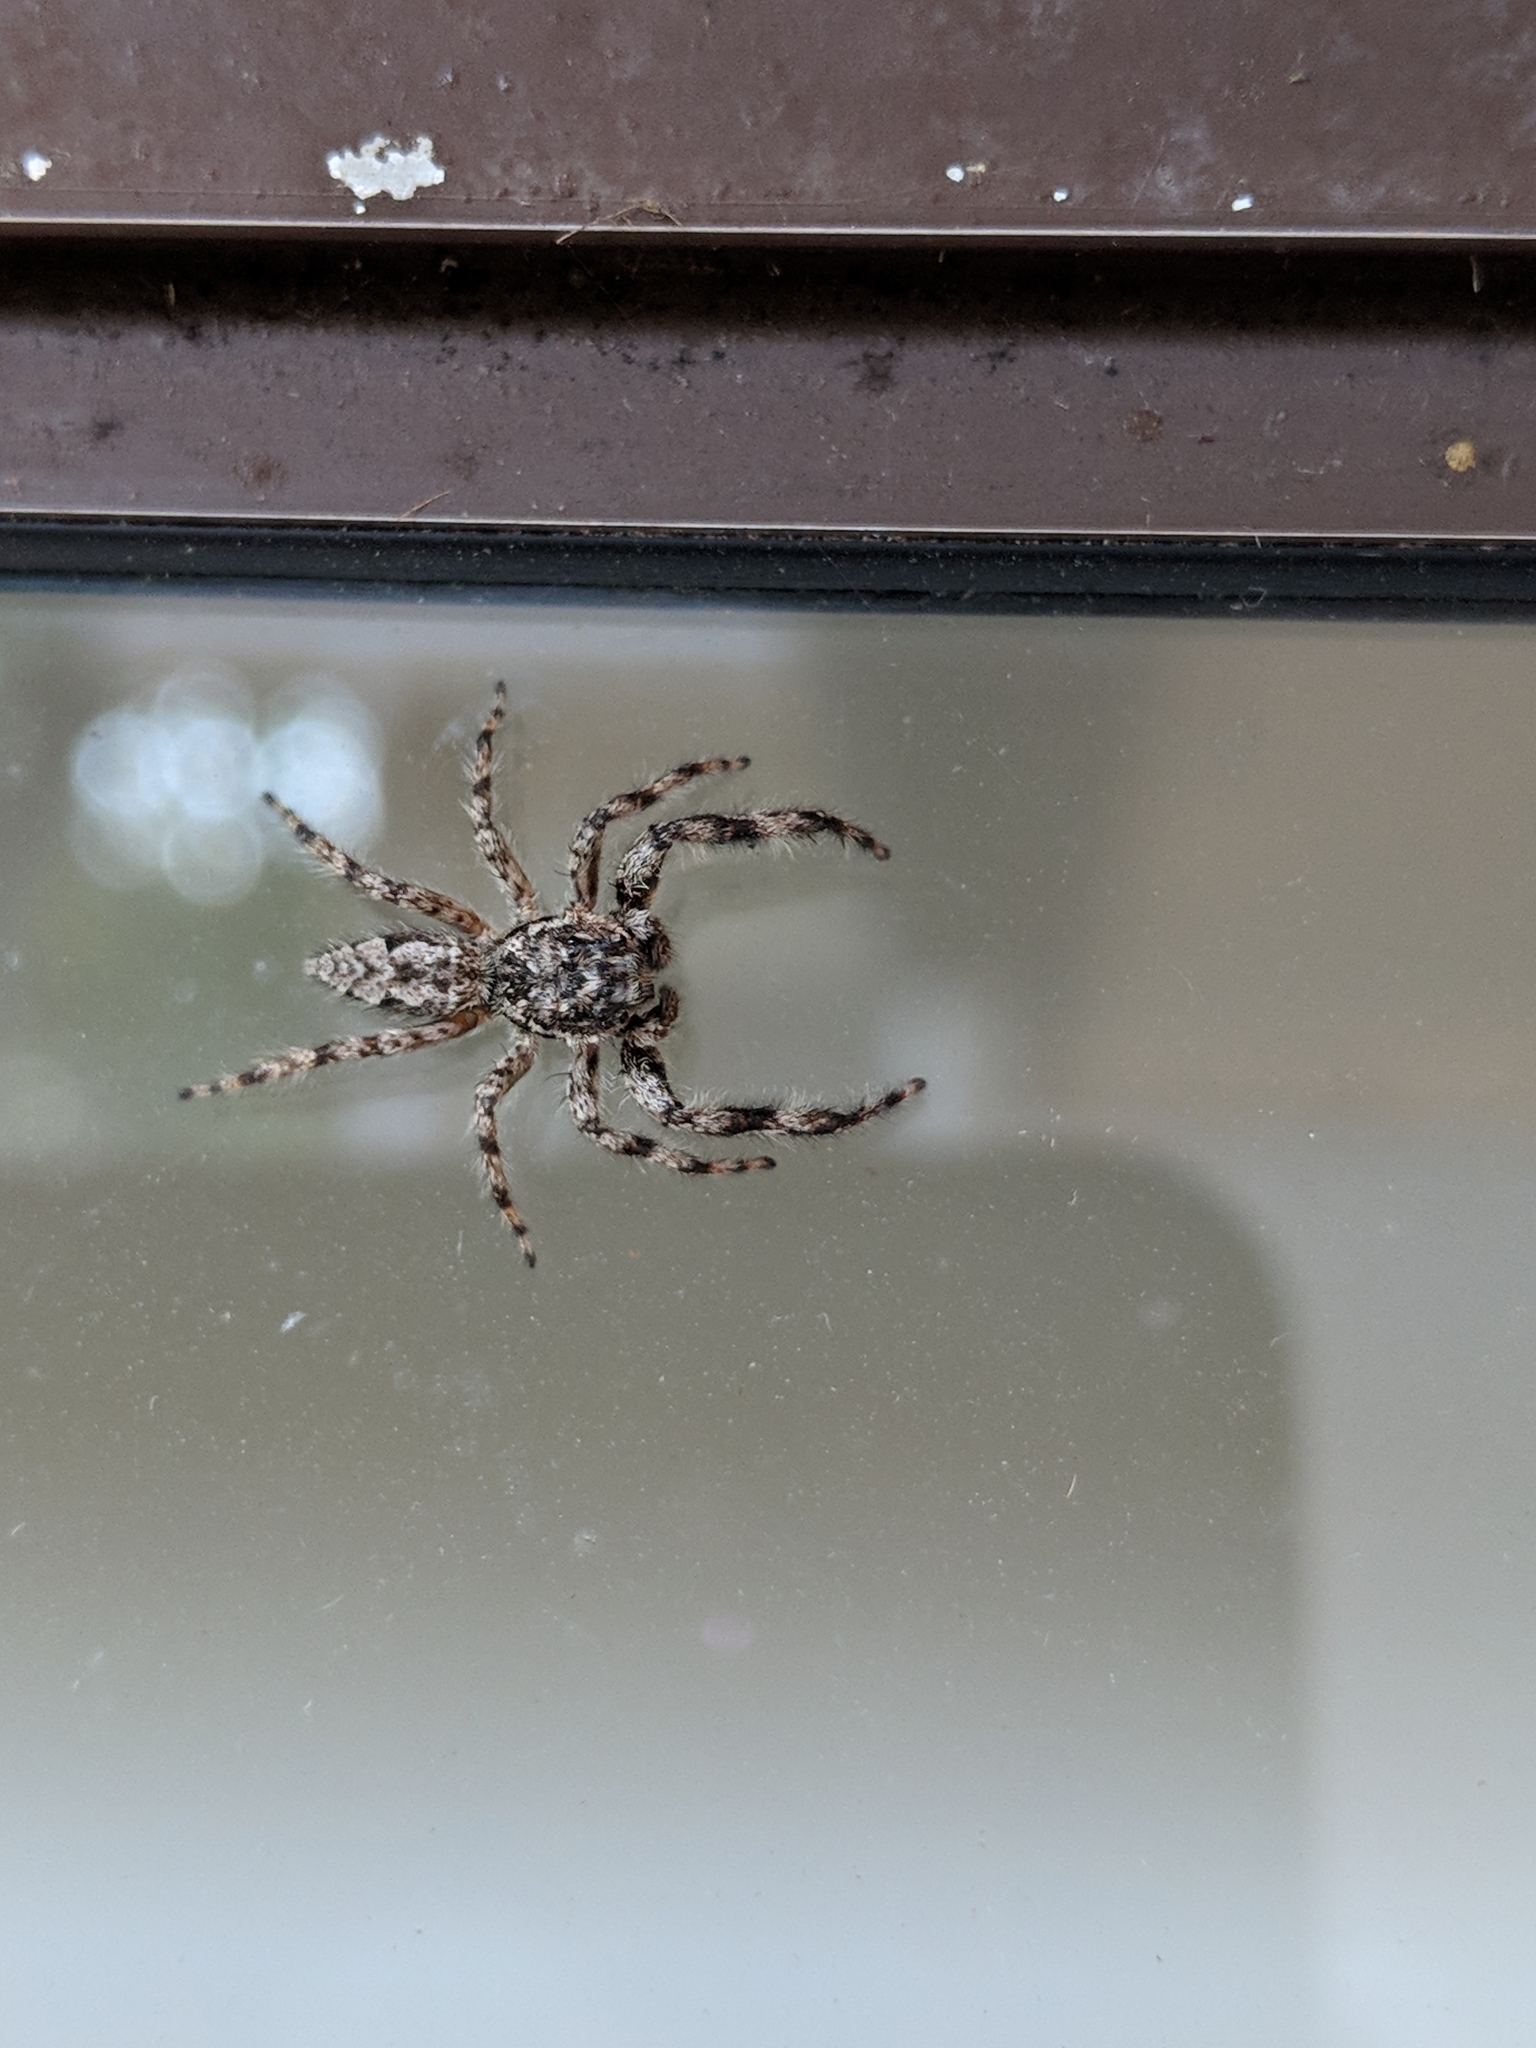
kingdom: Animalia
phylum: Arthropoda
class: Arachnida
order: Araneae
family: Salticidae
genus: Platycryptus
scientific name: Platycryptus undatus
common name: Tan jumping spider
